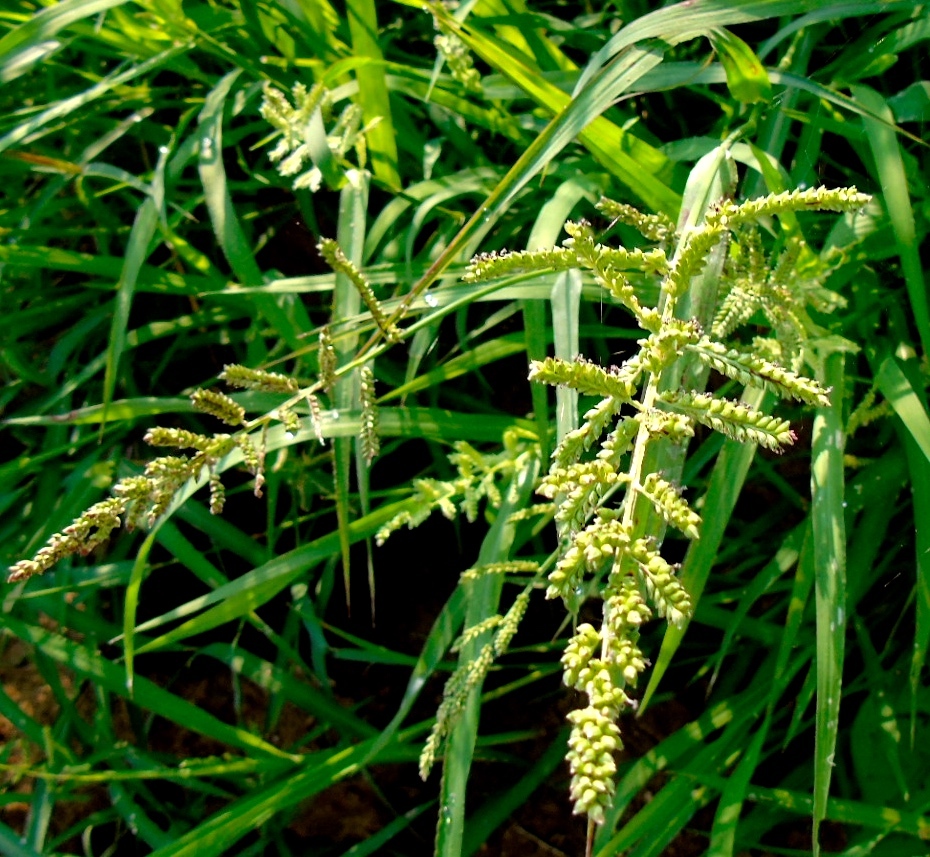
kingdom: Plantae
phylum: Tracheophyta
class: Liliopsida
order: Poales
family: Poaceae
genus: Echinochloa
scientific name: Echinochloa colonum
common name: Jungle rice
